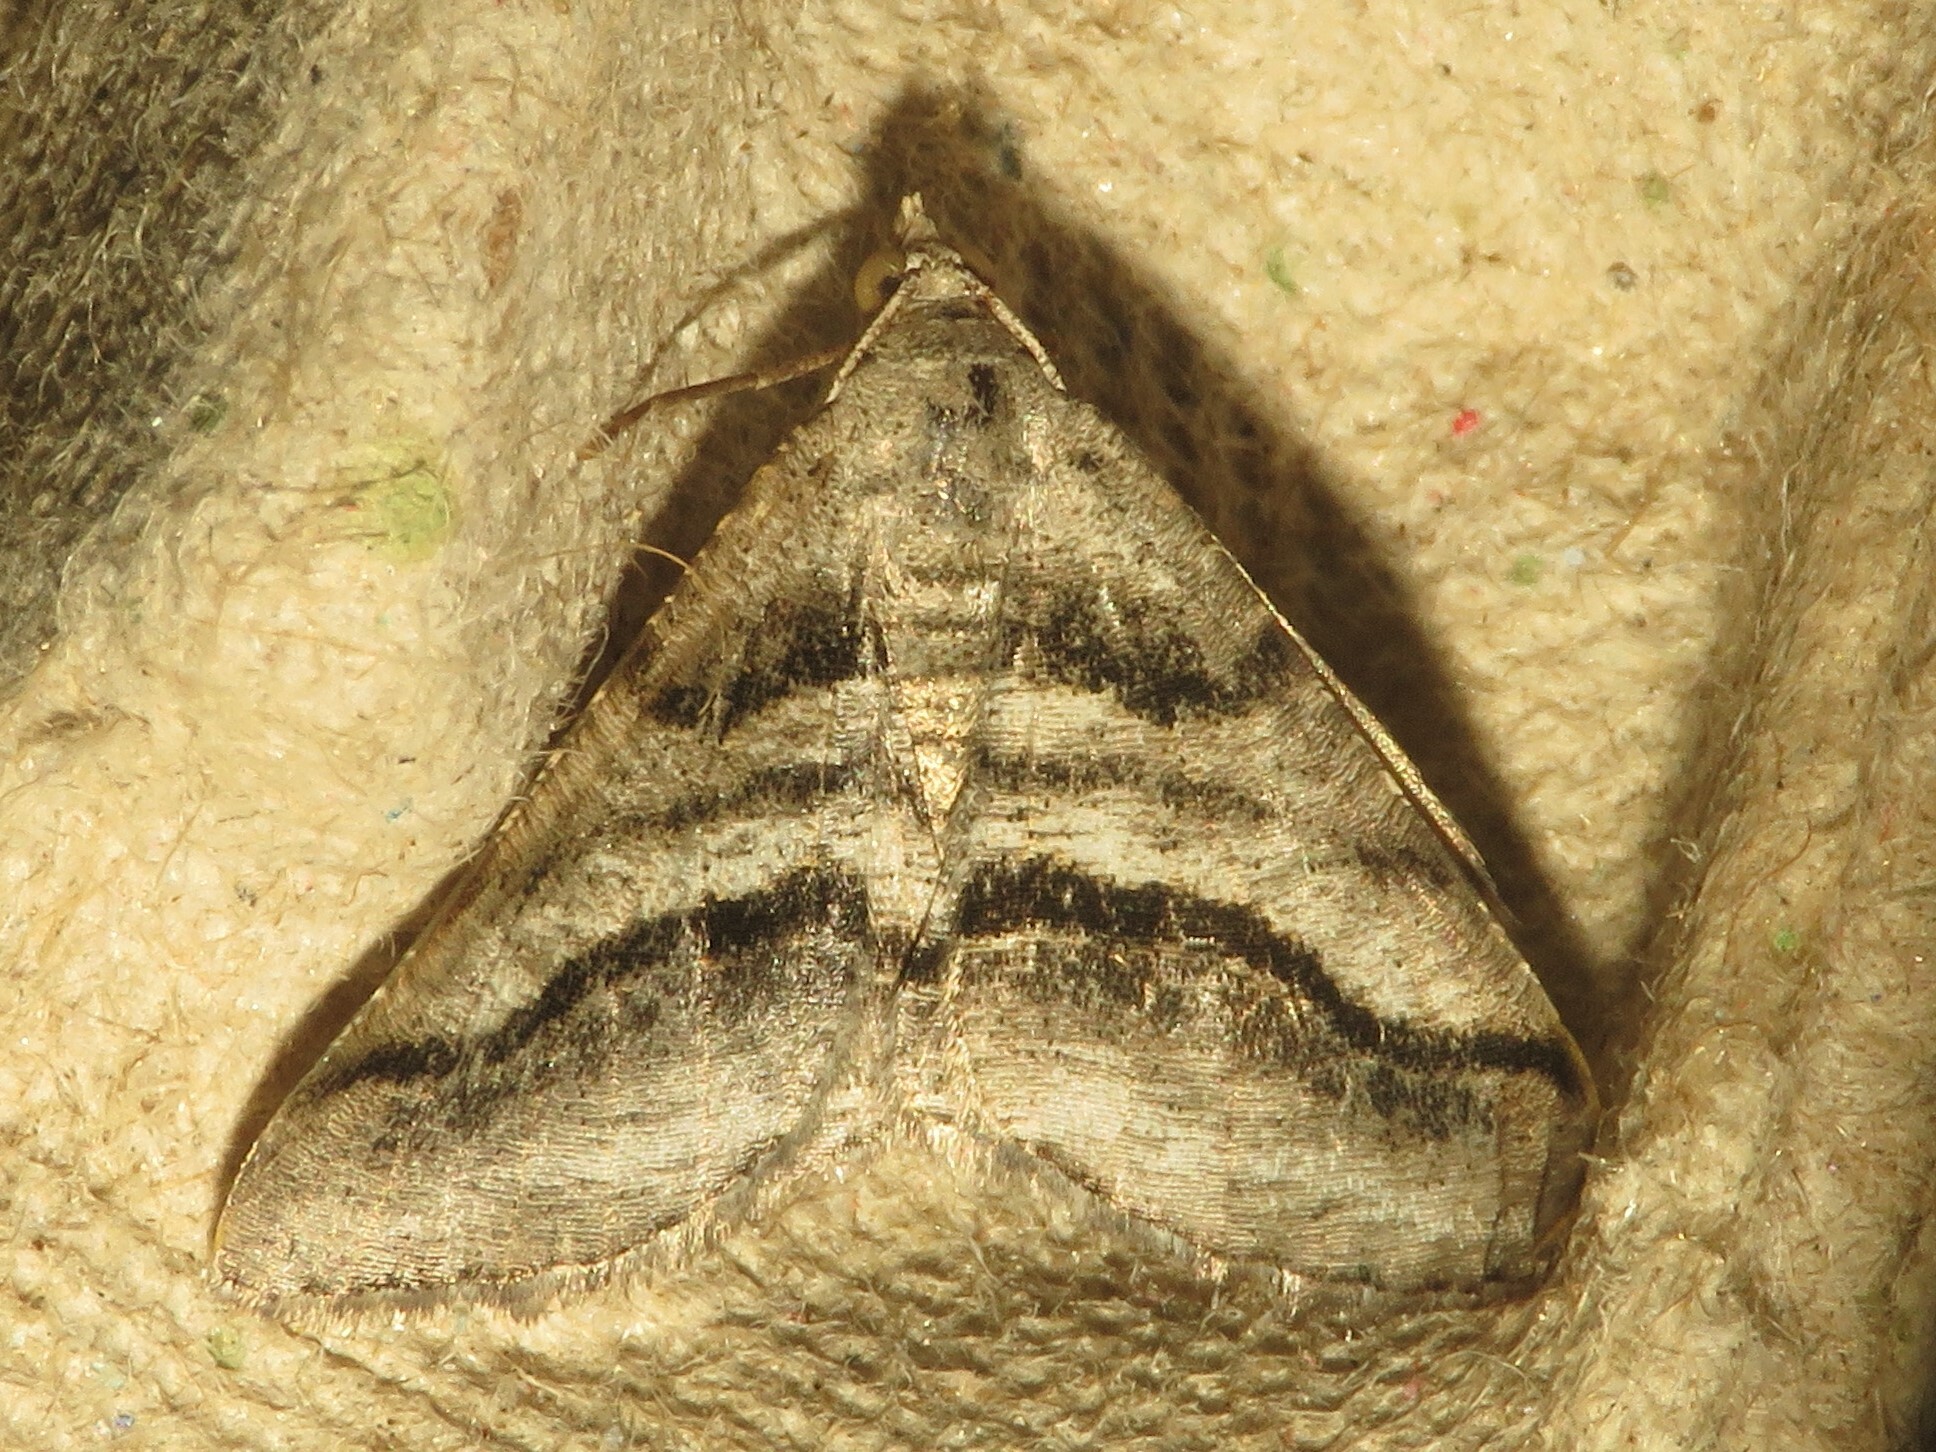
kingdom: Animalia
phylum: Arthropoda
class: Insecta
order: Lepidoptera
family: Geometridae
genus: Digrammia
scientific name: Digrammia continuata
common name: Curve-lined angle
